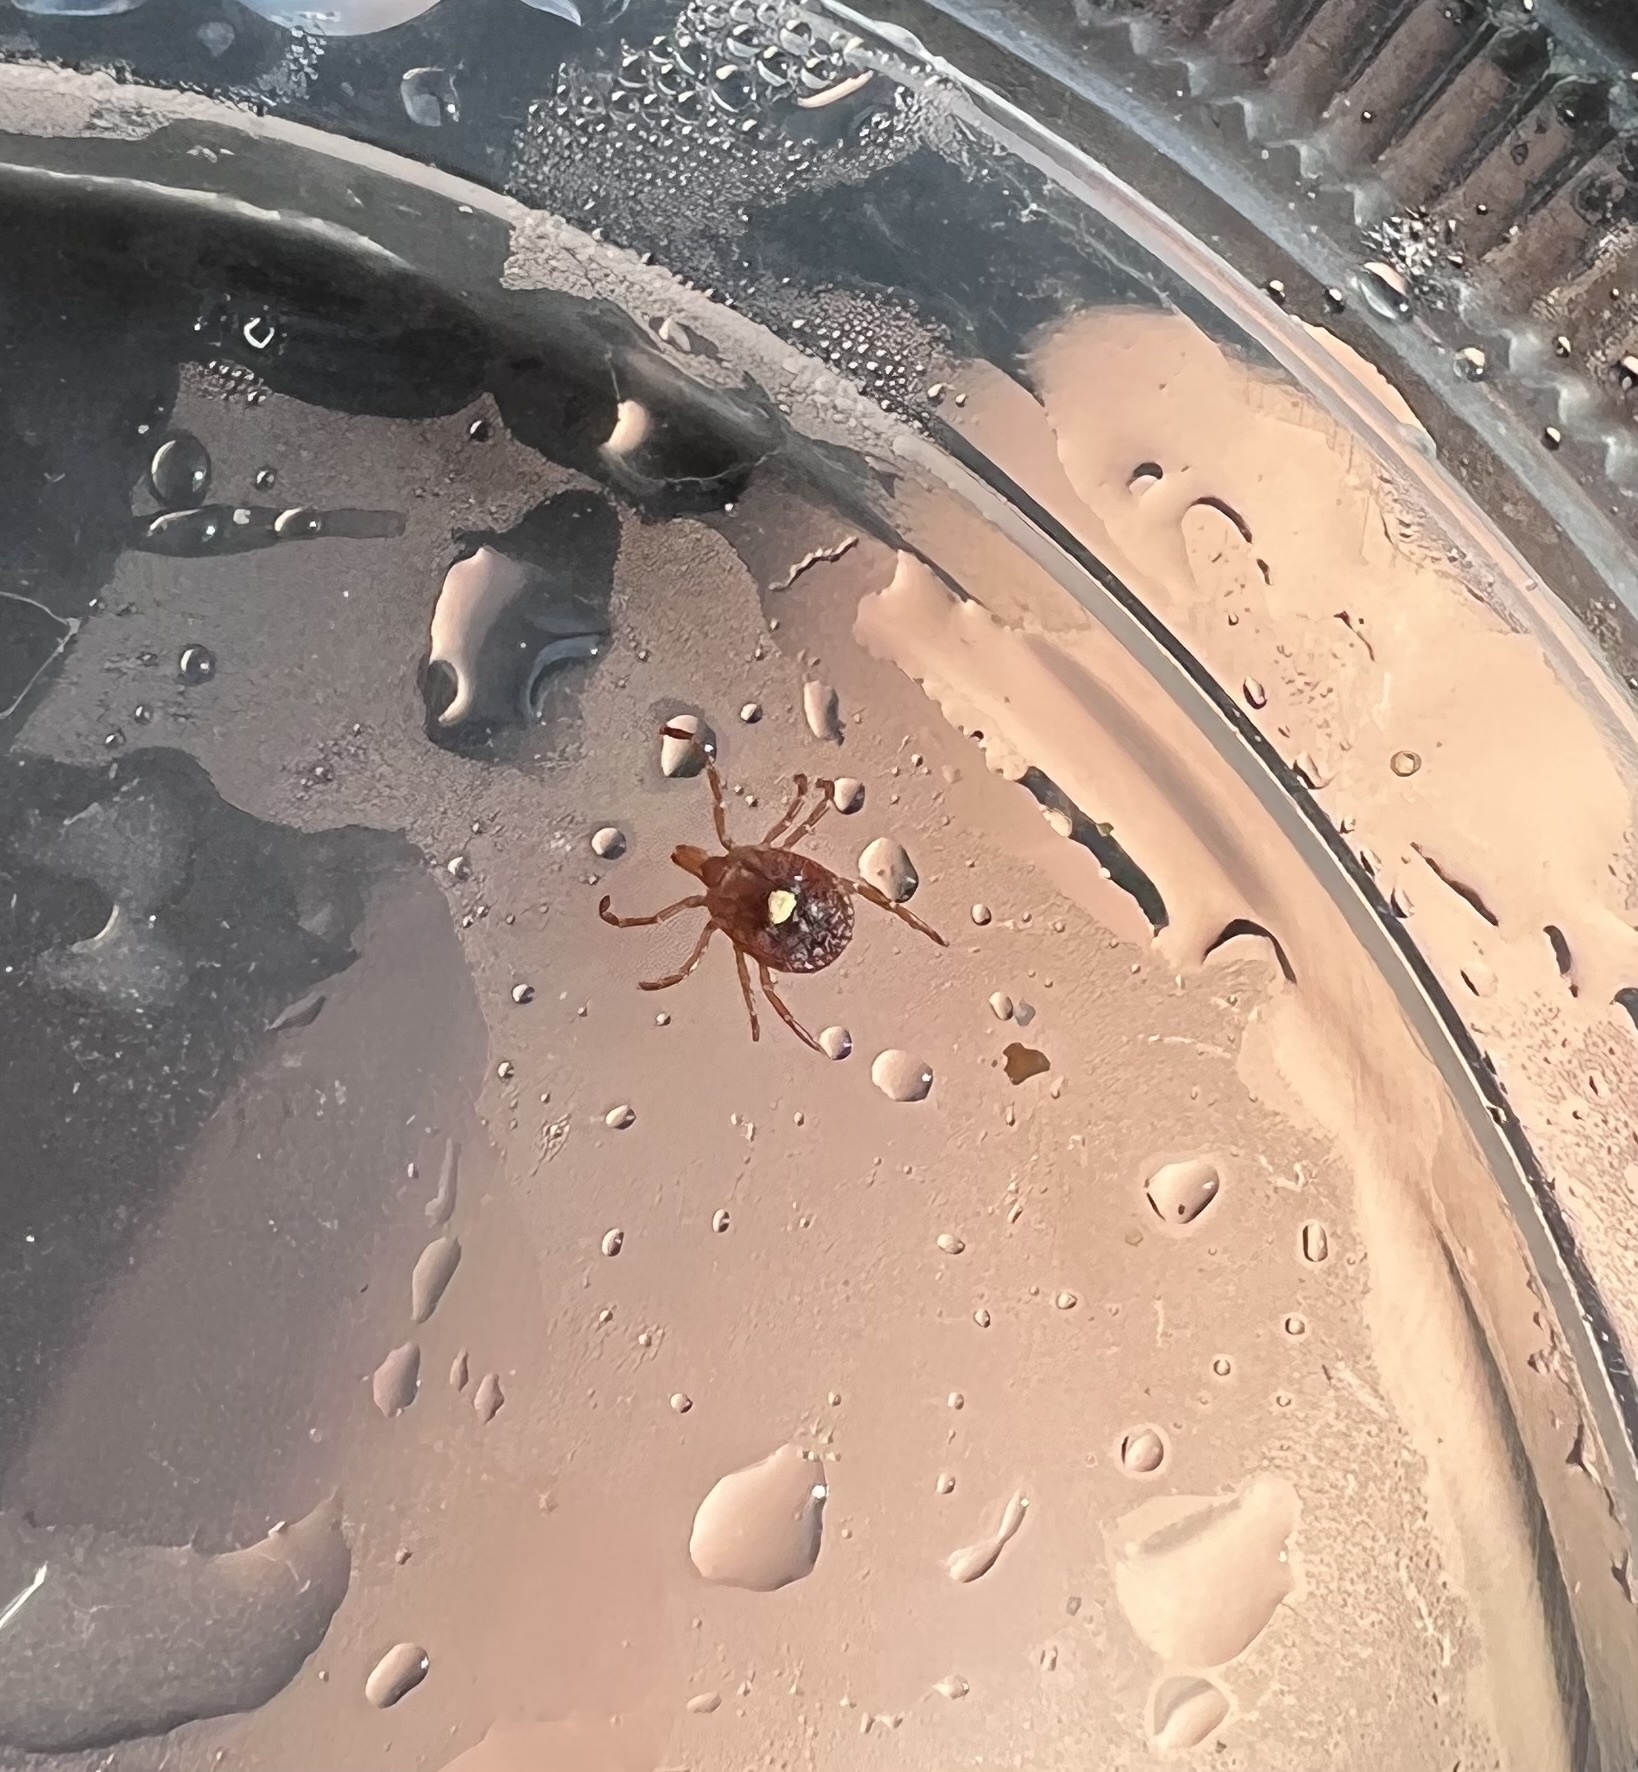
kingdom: Animalia
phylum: Arthropoda
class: Arachnida
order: Ixodida
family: Ixodidae
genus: Amblyomma
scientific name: Amblyomma americanum
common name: Lone star tick
